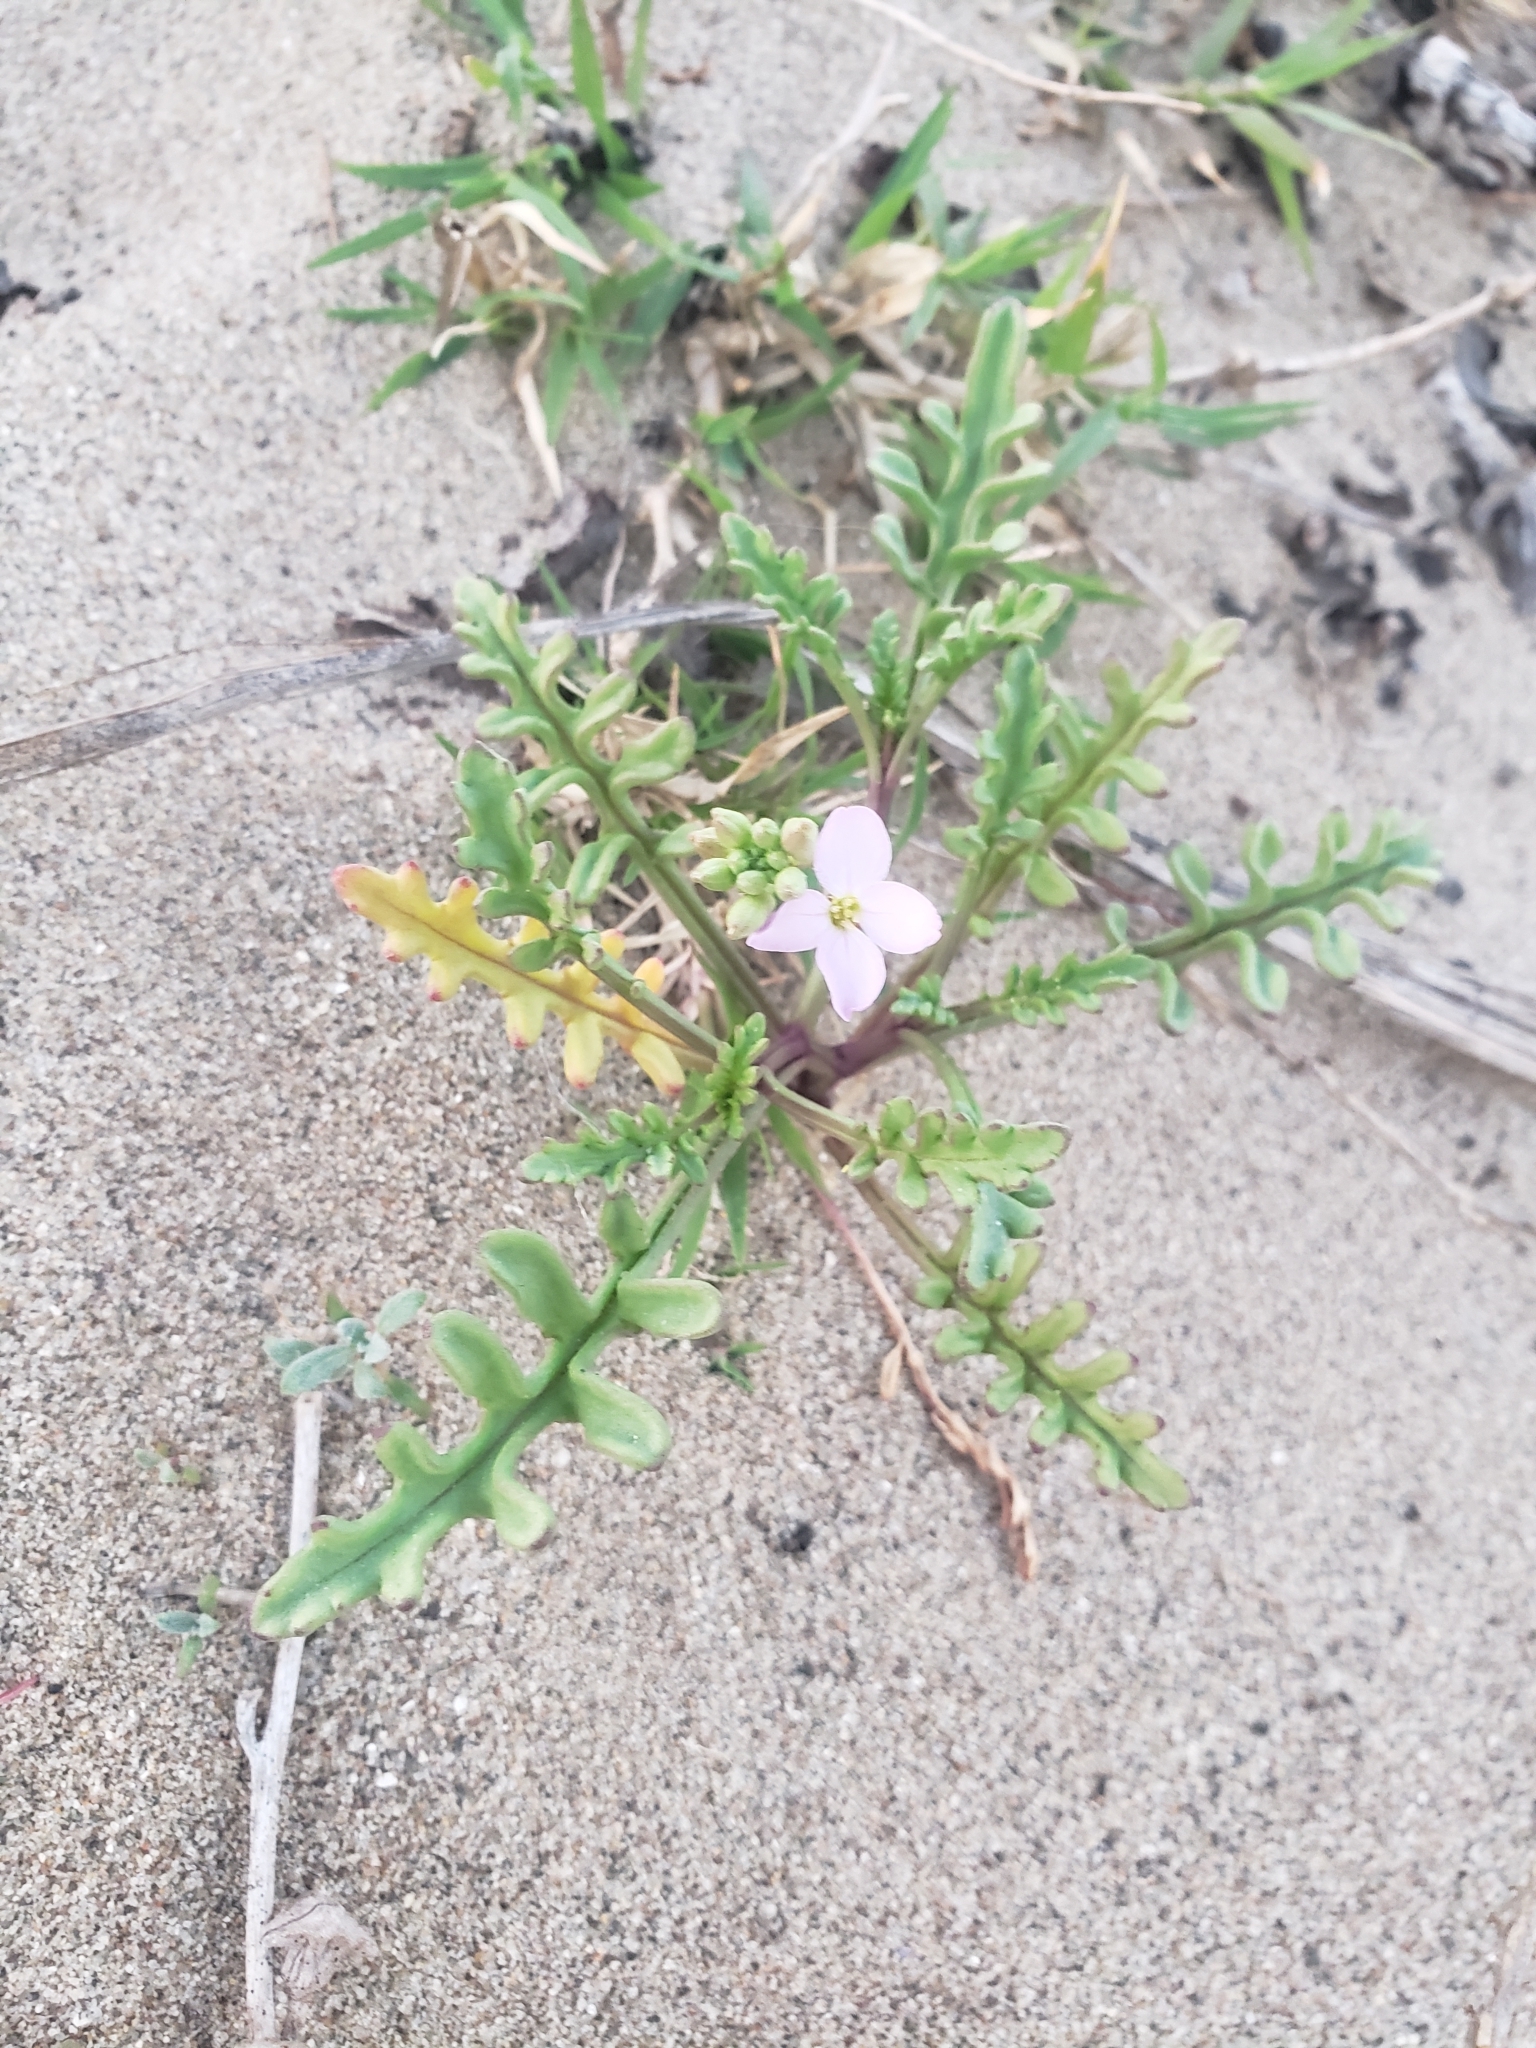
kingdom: Plantae
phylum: Tracheophyta
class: Magnoliopsida
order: Brassicales
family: Brassicaceae
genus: Cakile
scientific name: Cakile maritima
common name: Sea rocket
